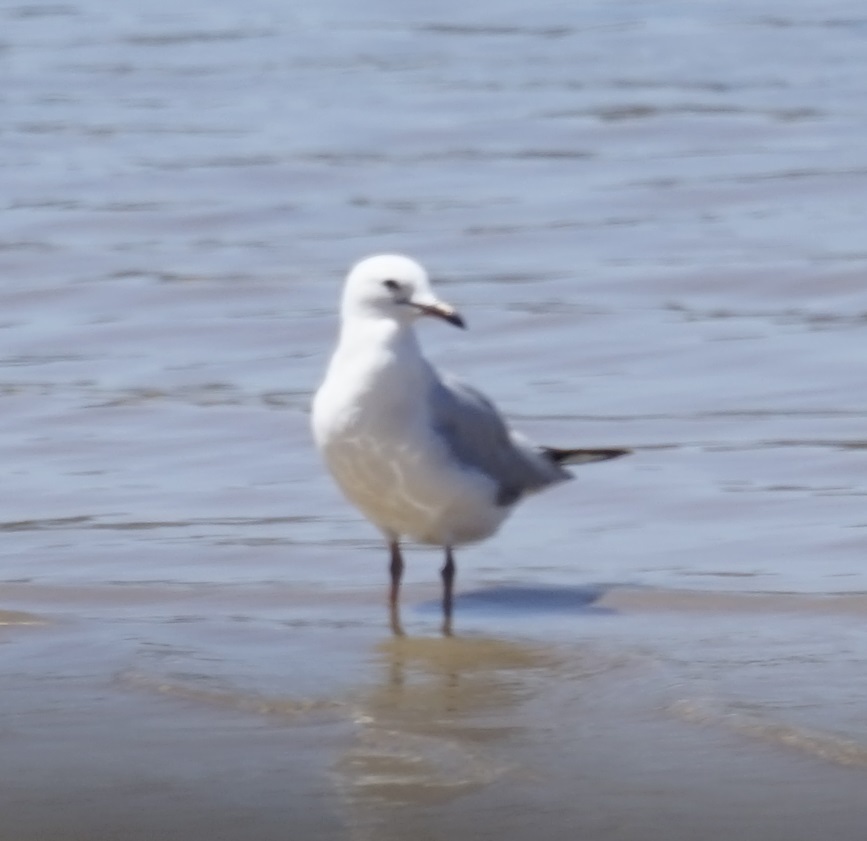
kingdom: Animalia
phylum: Chordata
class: Aves
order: Charadriiformes
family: Laridae
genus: Chroicocephalus
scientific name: Chroicocephalus novaehollandiae
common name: Silver gull
